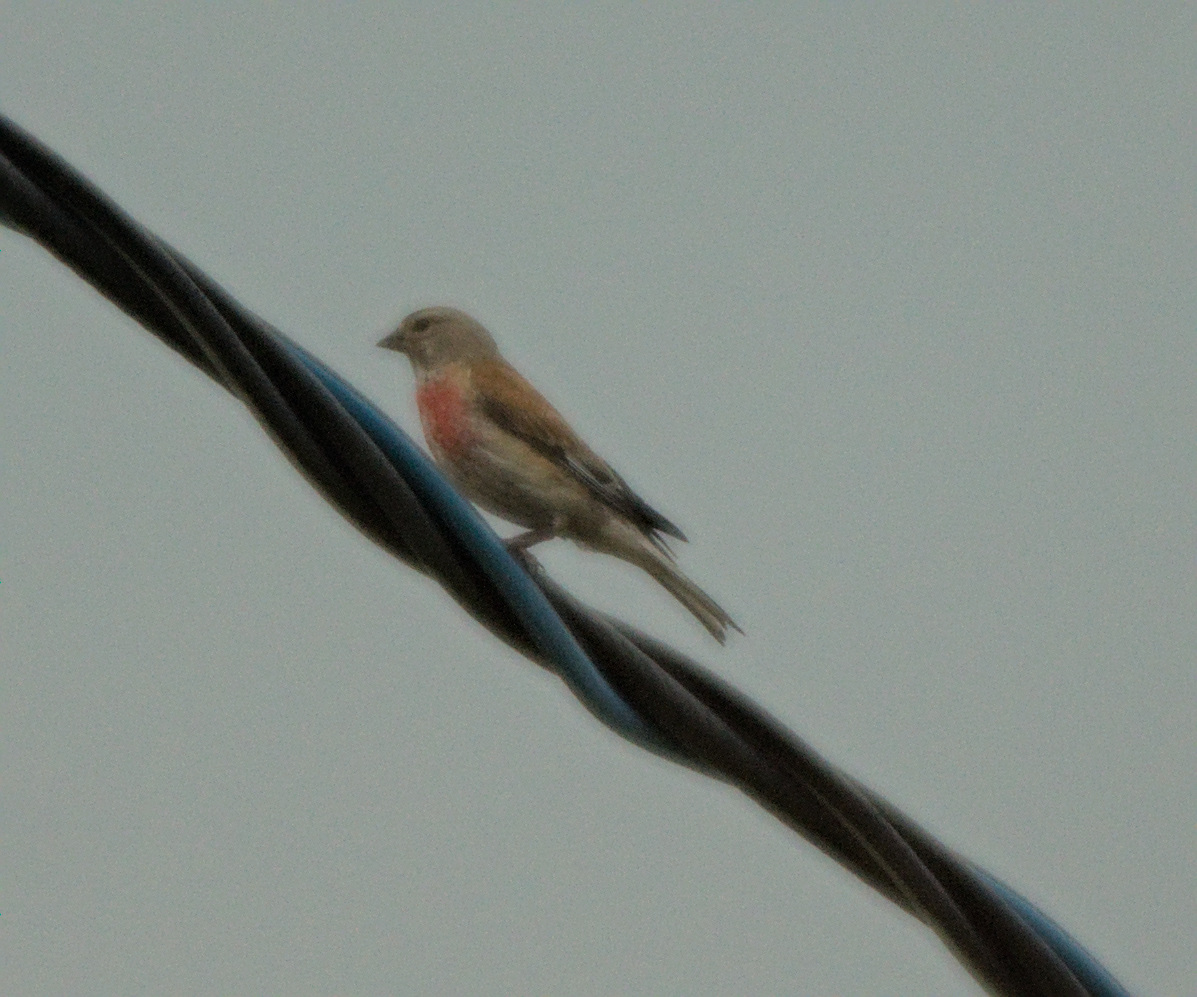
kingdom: Animalia
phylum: Chordata
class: Aves
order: Passeriformes
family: Fringillidae
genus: Linaria
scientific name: Linaria cannabina
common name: Common linnet
